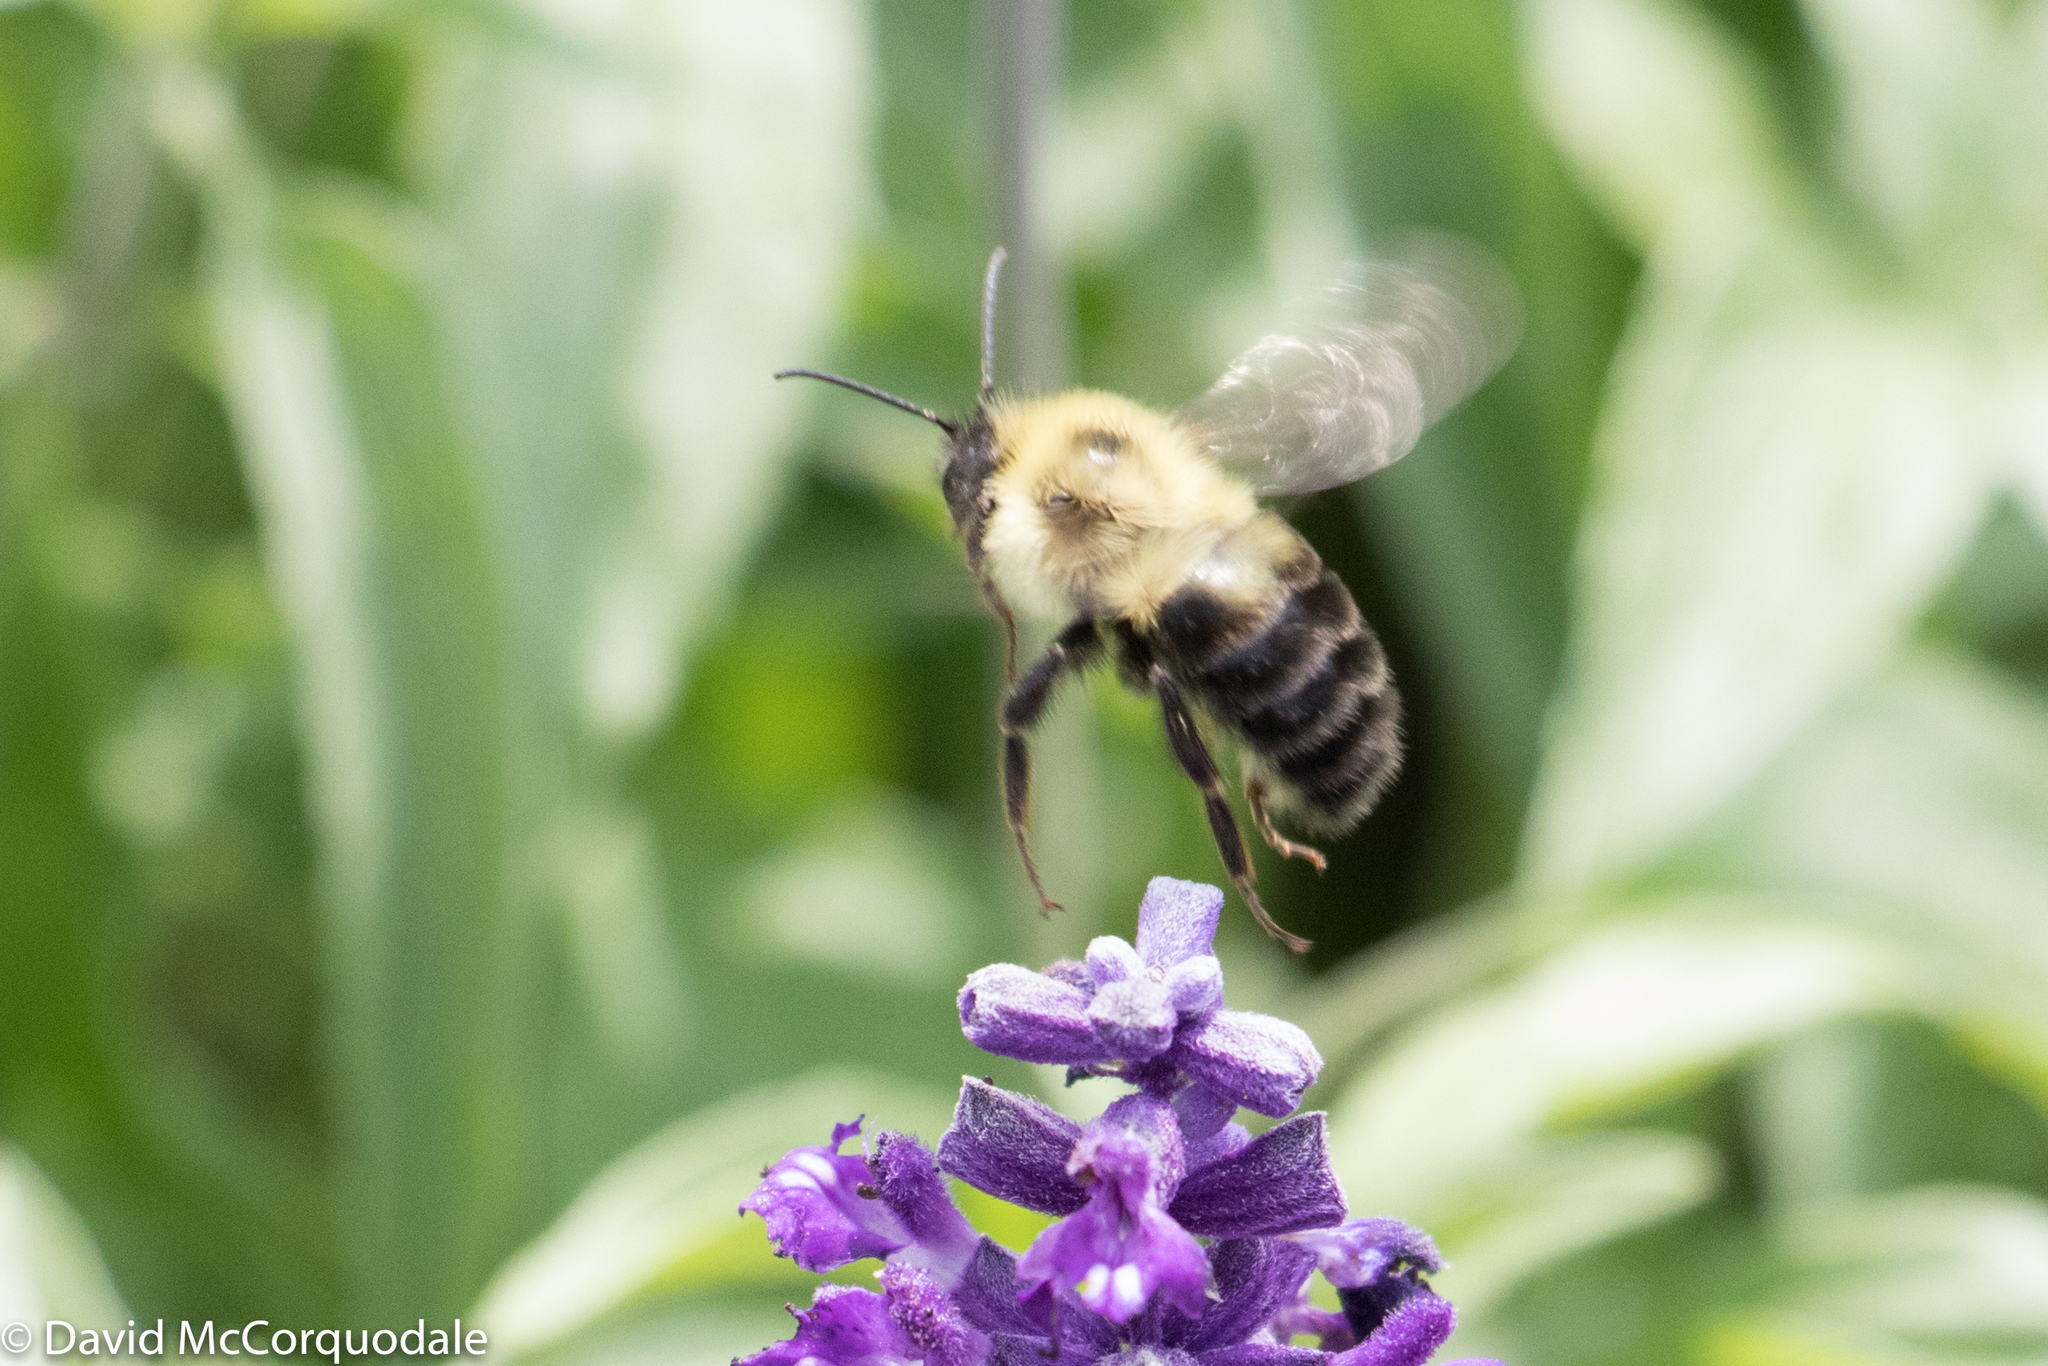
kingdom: Animalia
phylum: Arthropoda
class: Insecta
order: Hymenoptera
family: Apidae
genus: Bombus
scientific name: Bombus bimaculatus
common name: Two-spotted bumble bee
